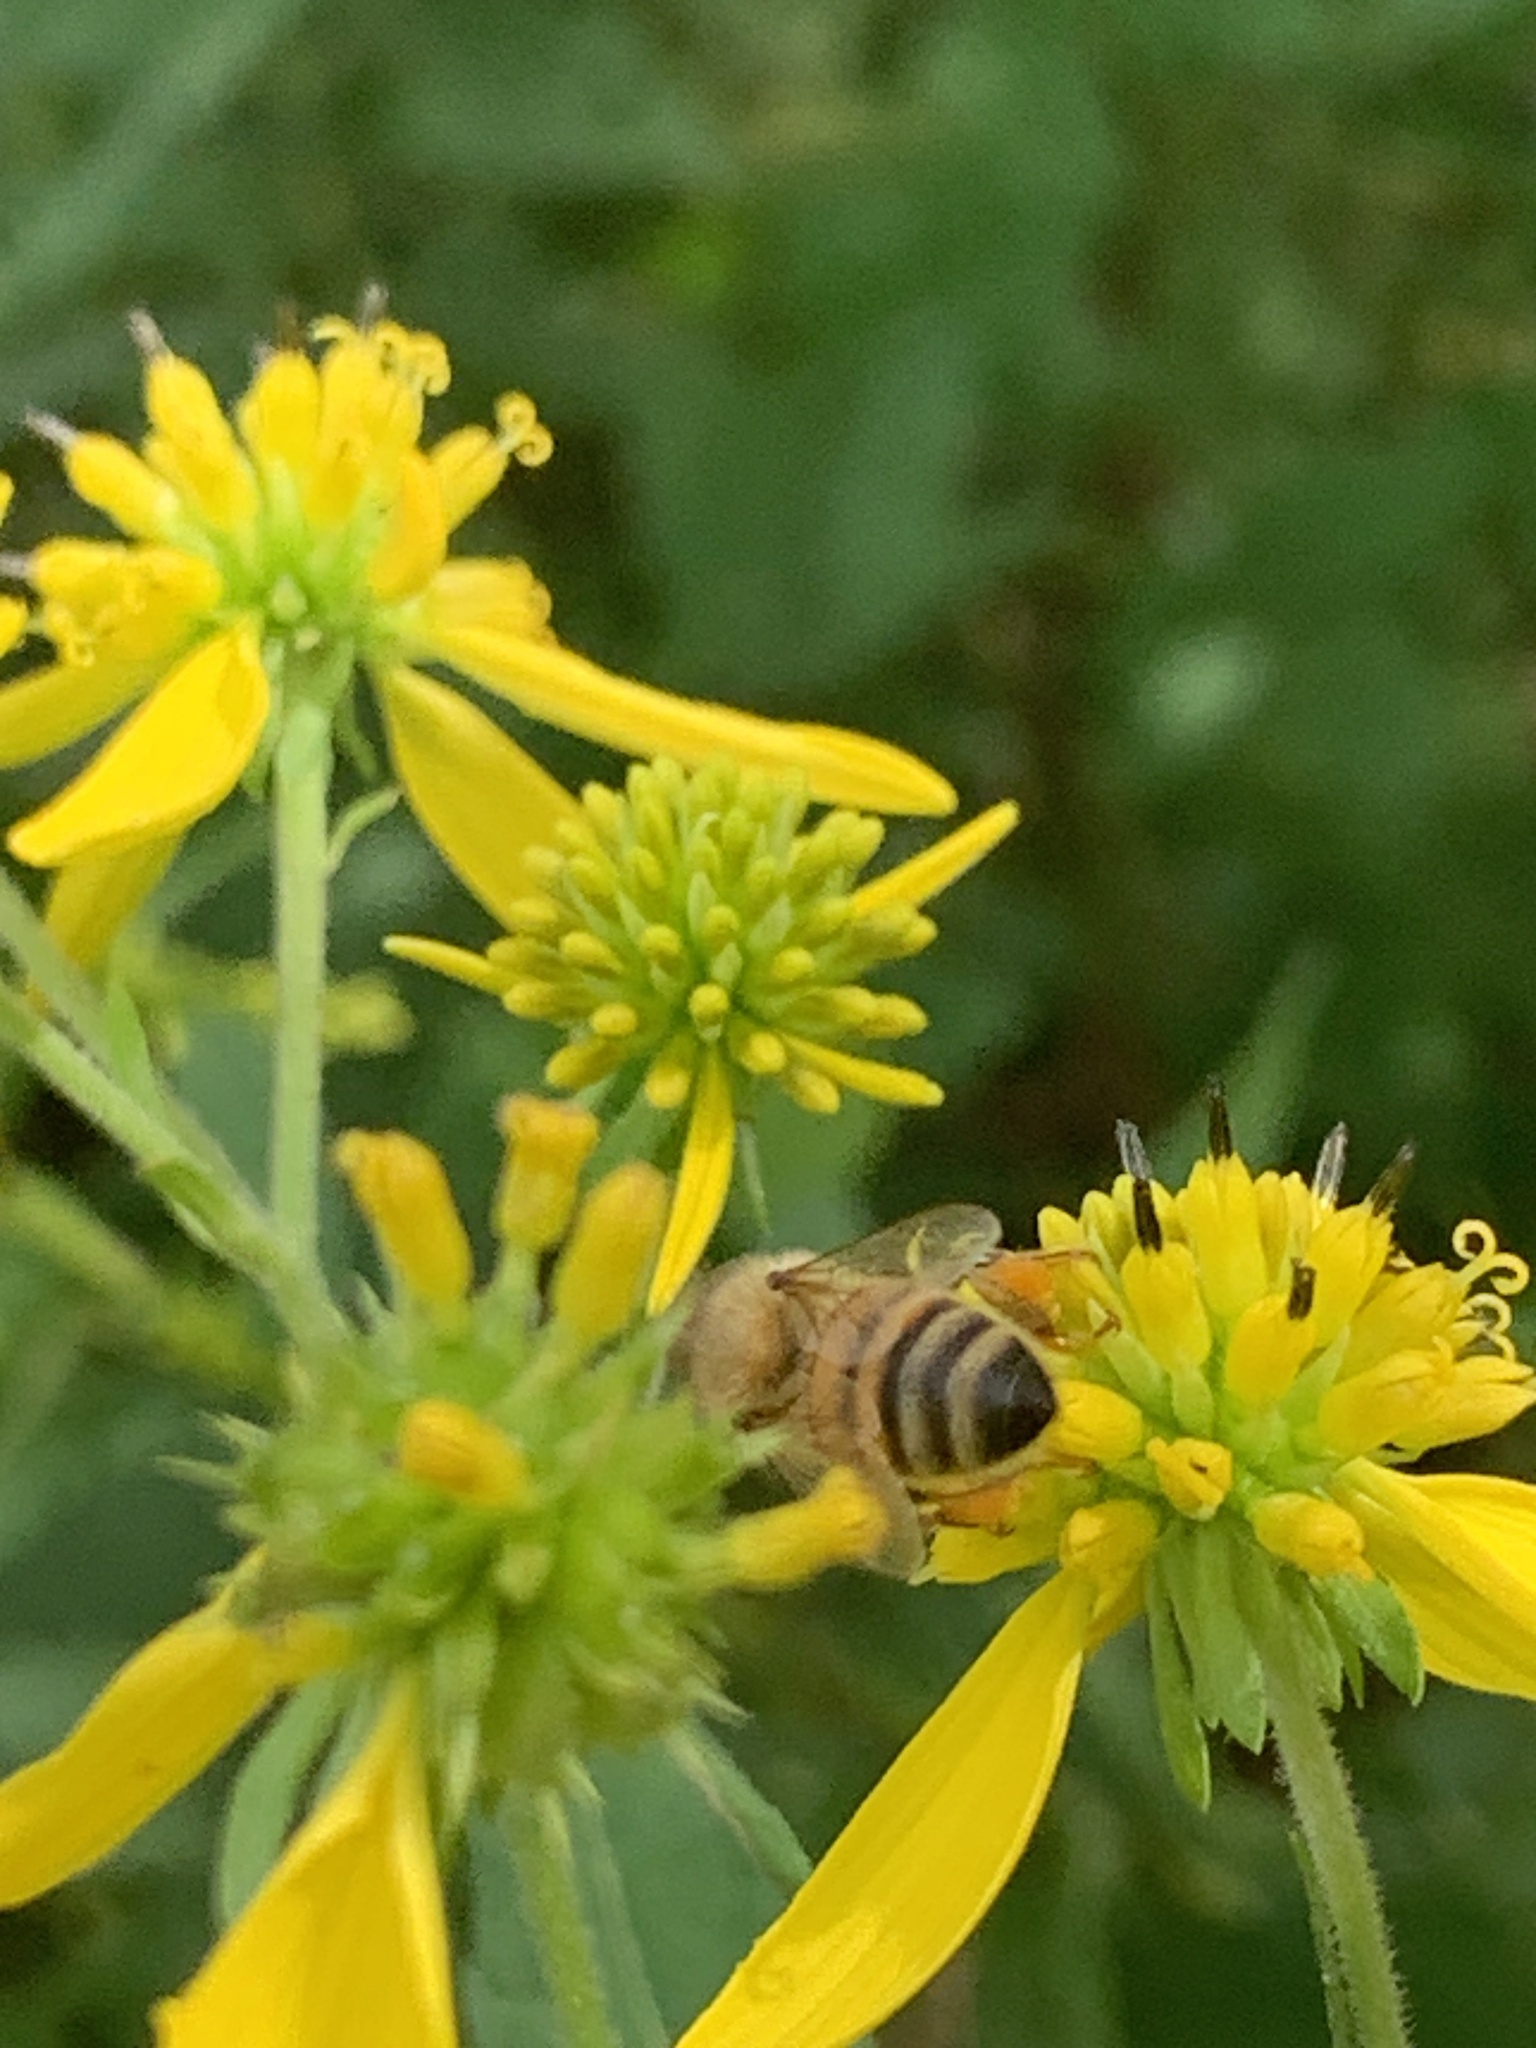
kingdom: Animalia
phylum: Arthropoda
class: Insecta
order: Hymenoptera
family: Apidae
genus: Apis
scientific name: Apis mellifera
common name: Honey bee
